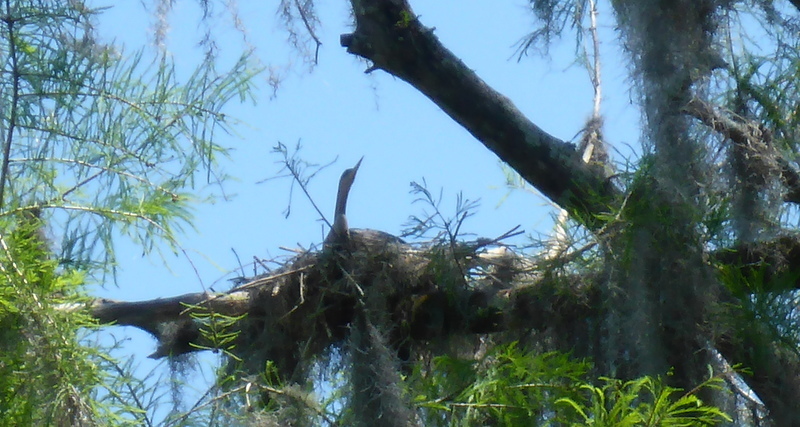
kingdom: Animalia
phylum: Chordata
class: Aves
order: Suliformes
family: Anhingidae
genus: Anhinga
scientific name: Anhinga anhinga
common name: Anhinga
